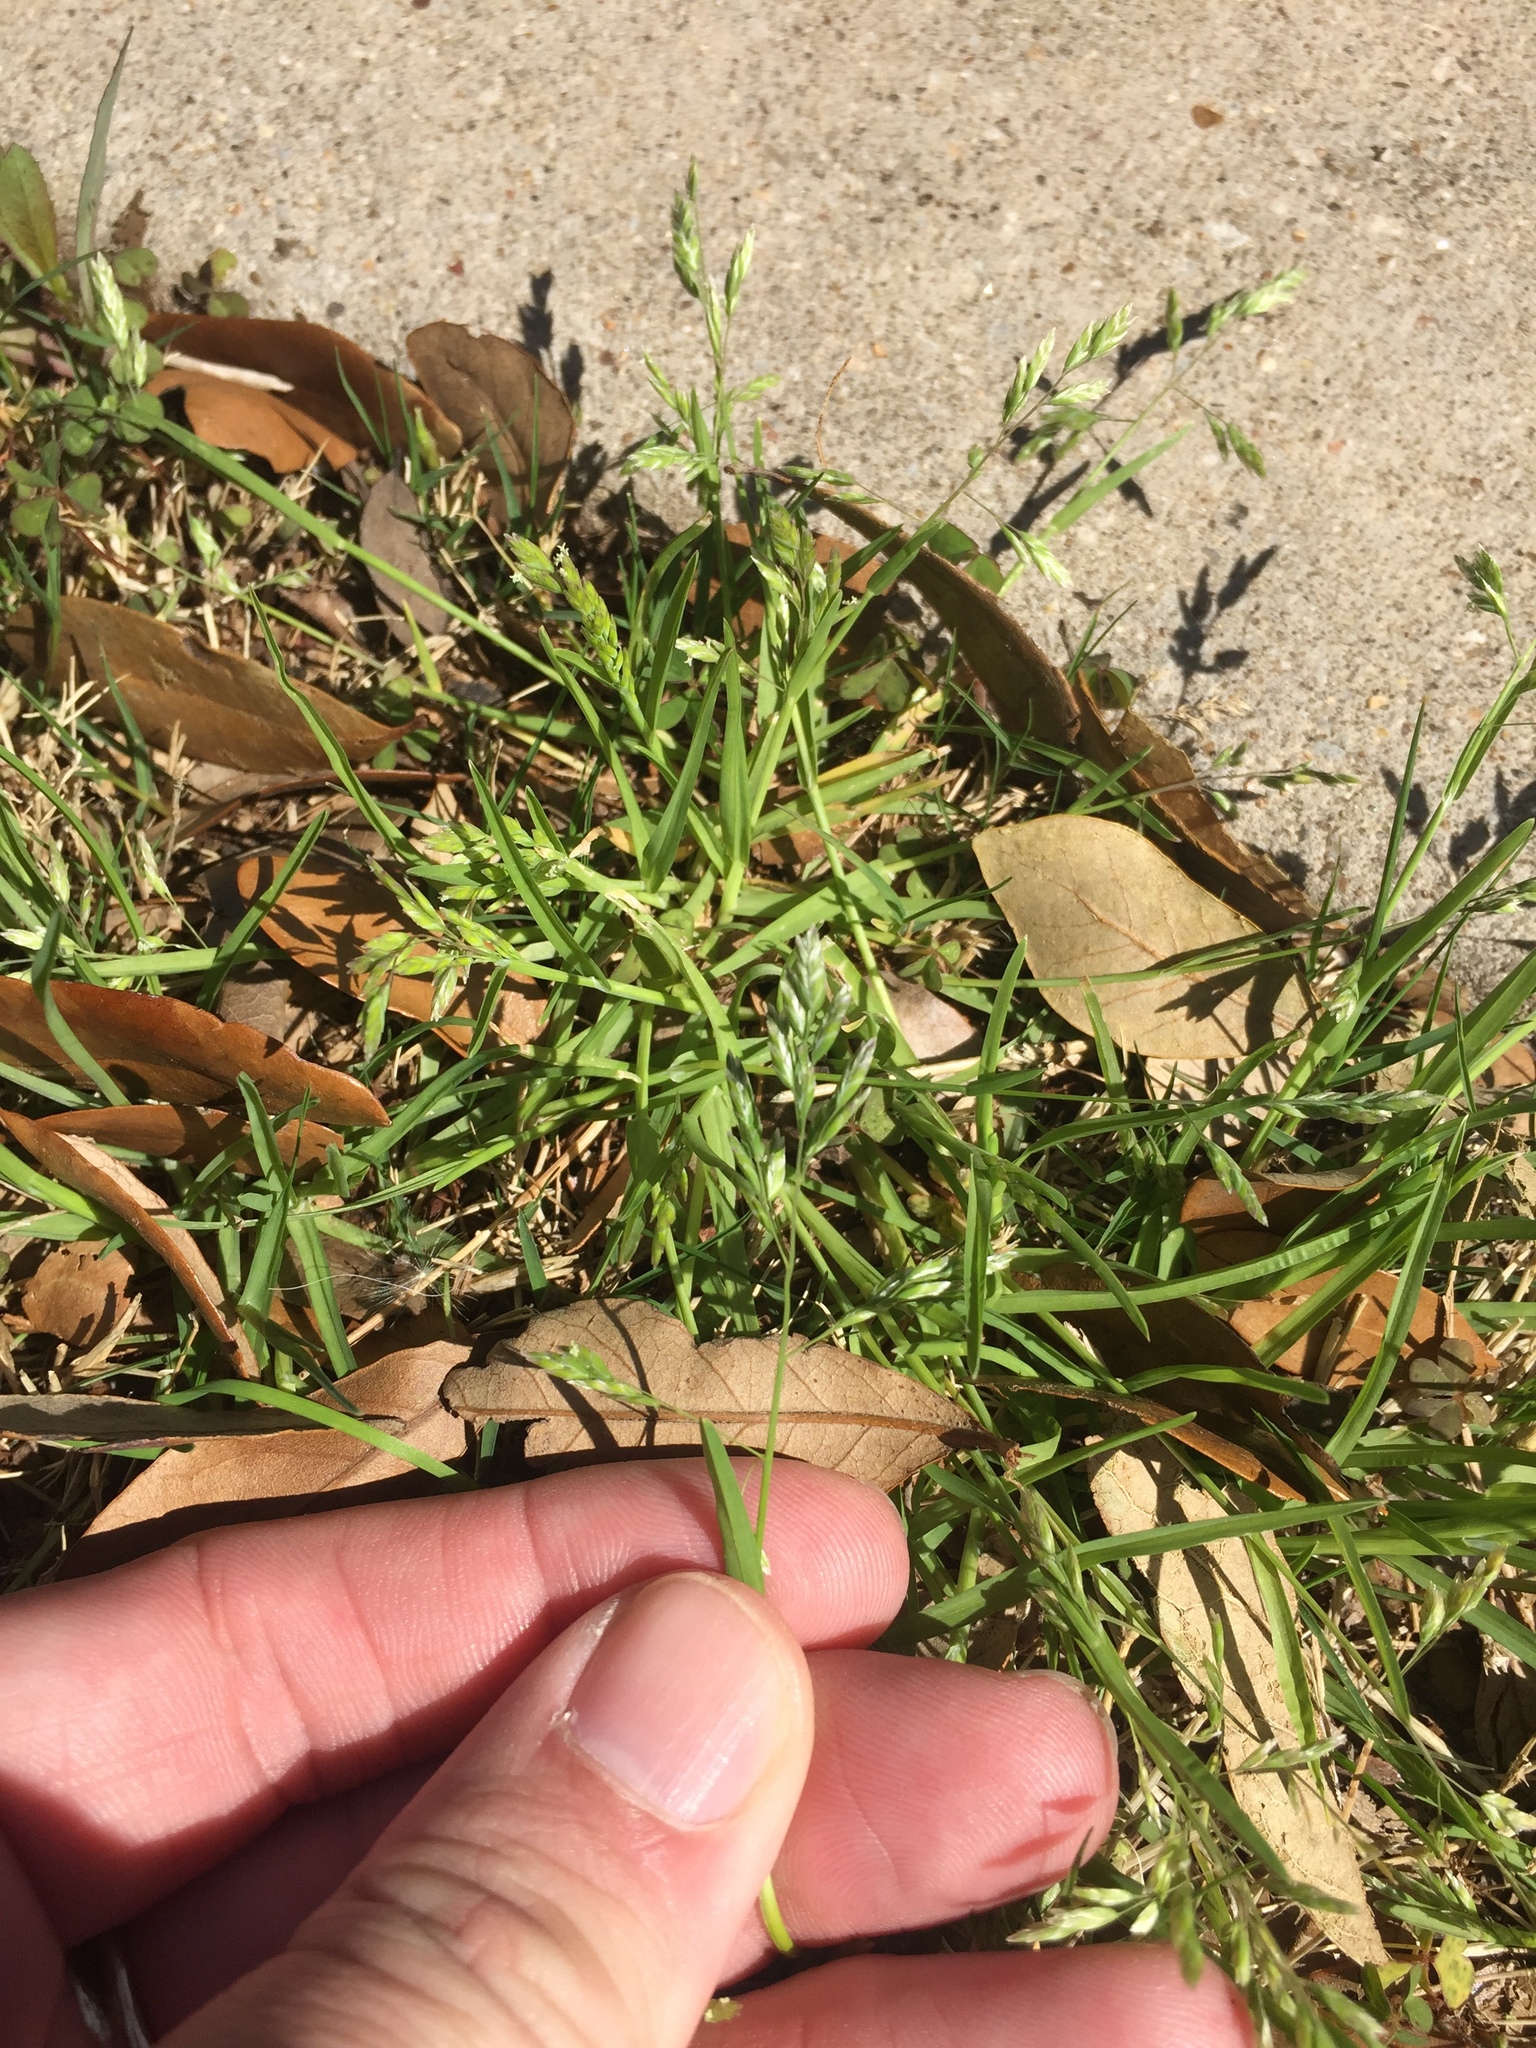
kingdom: Plantae
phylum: Tracheophyta
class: Liliopsida
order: Poales
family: Poaceae
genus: Poa
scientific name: Poa annua
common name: Annual bluegrass
